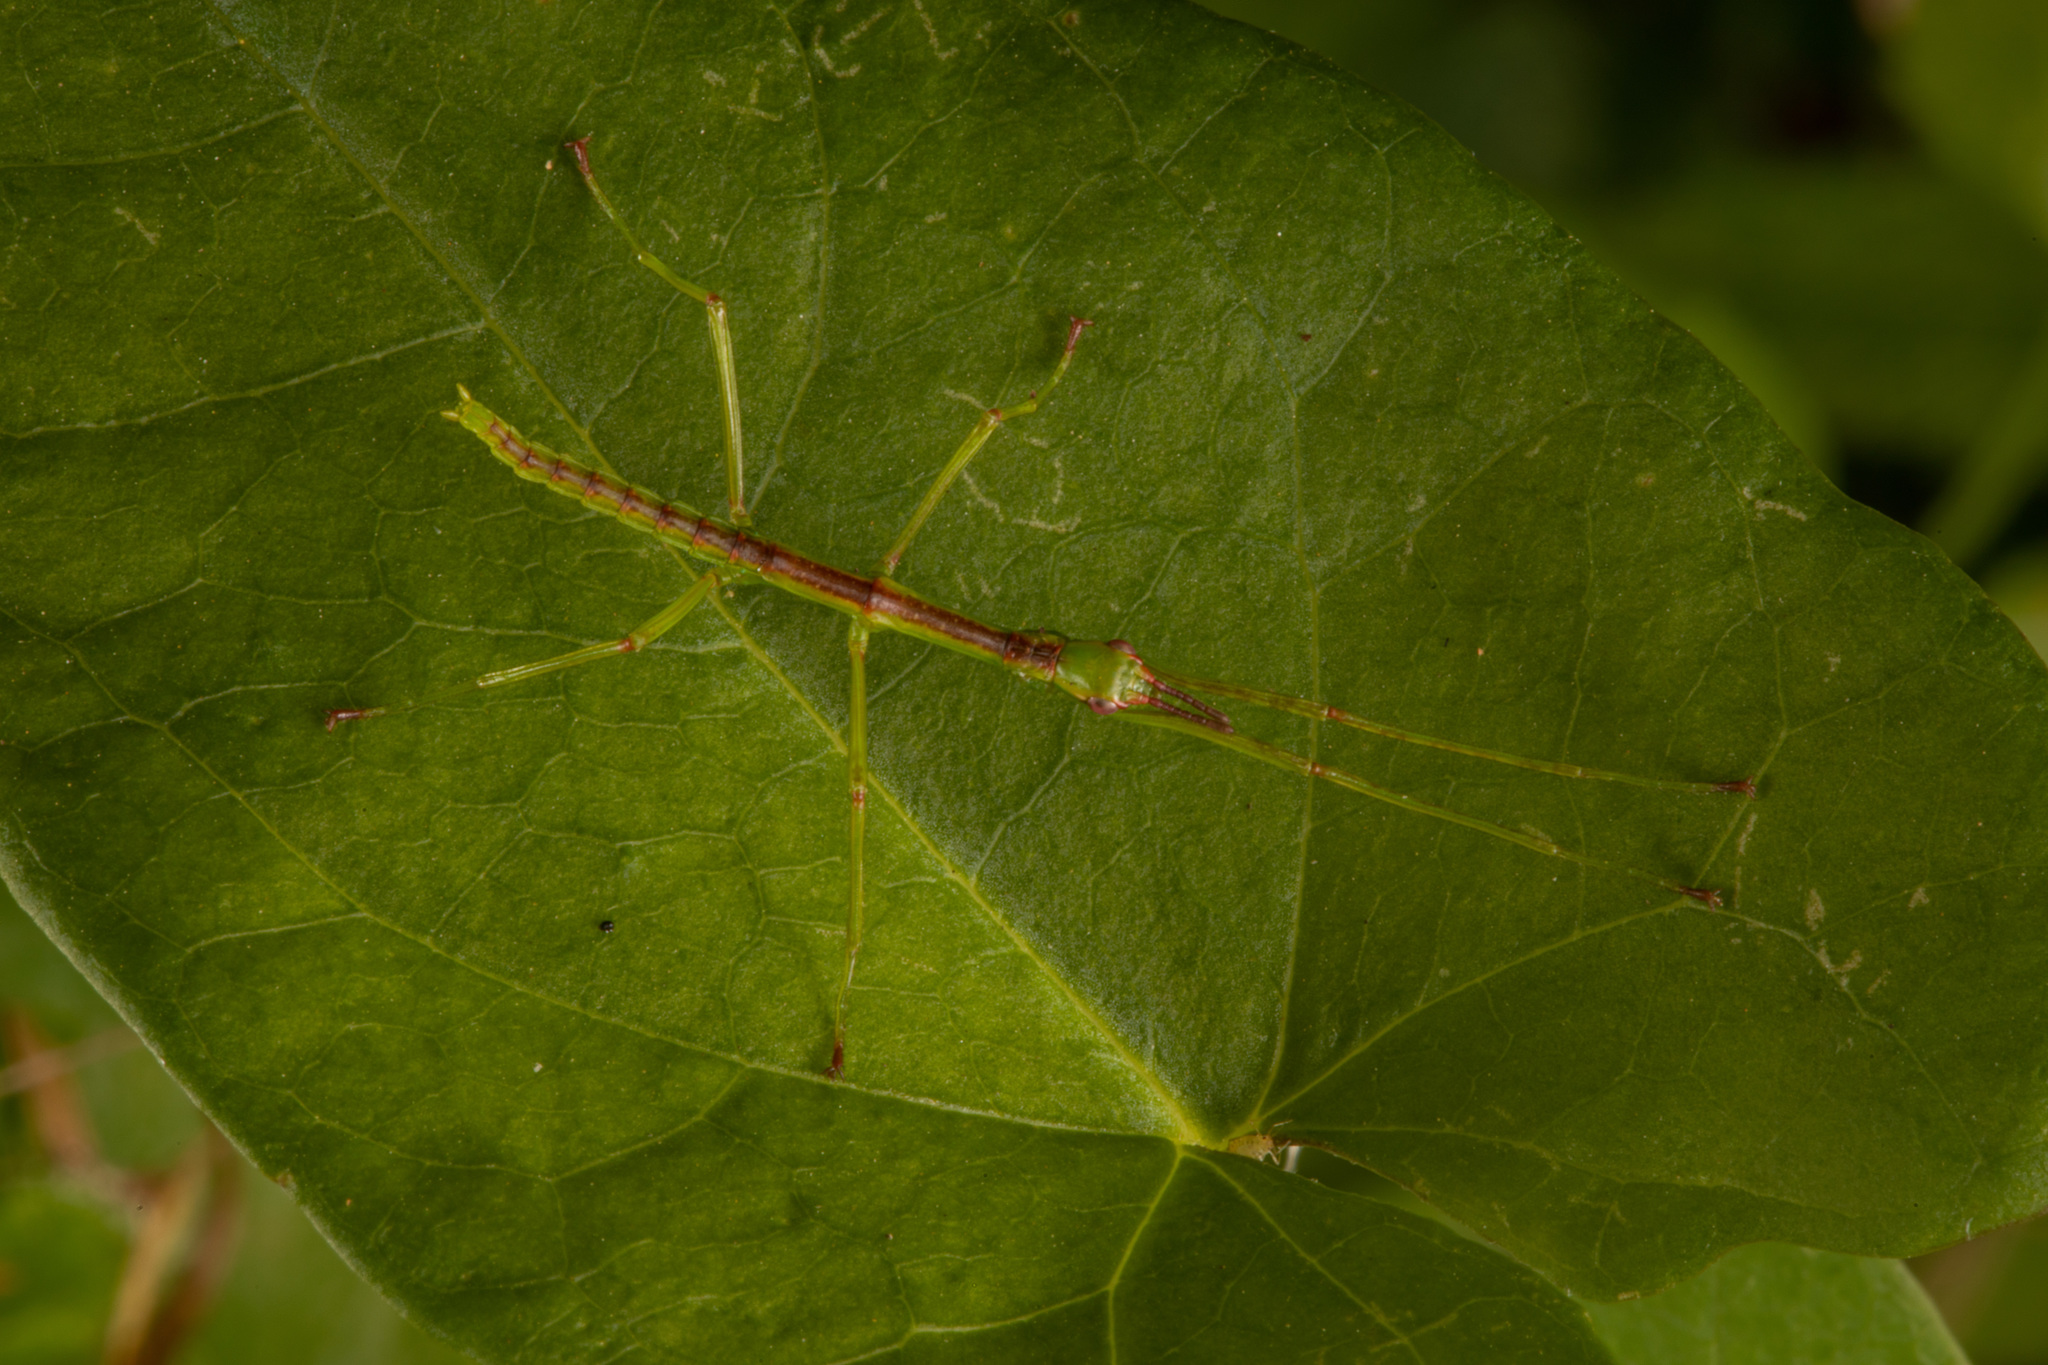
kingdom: Animalia
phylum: Arthropoda
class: Insecta
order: Phasmida
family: Phasmatidae
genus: Clitarchus
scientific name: Clitarchus hookeri
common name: Smooth stick insect
